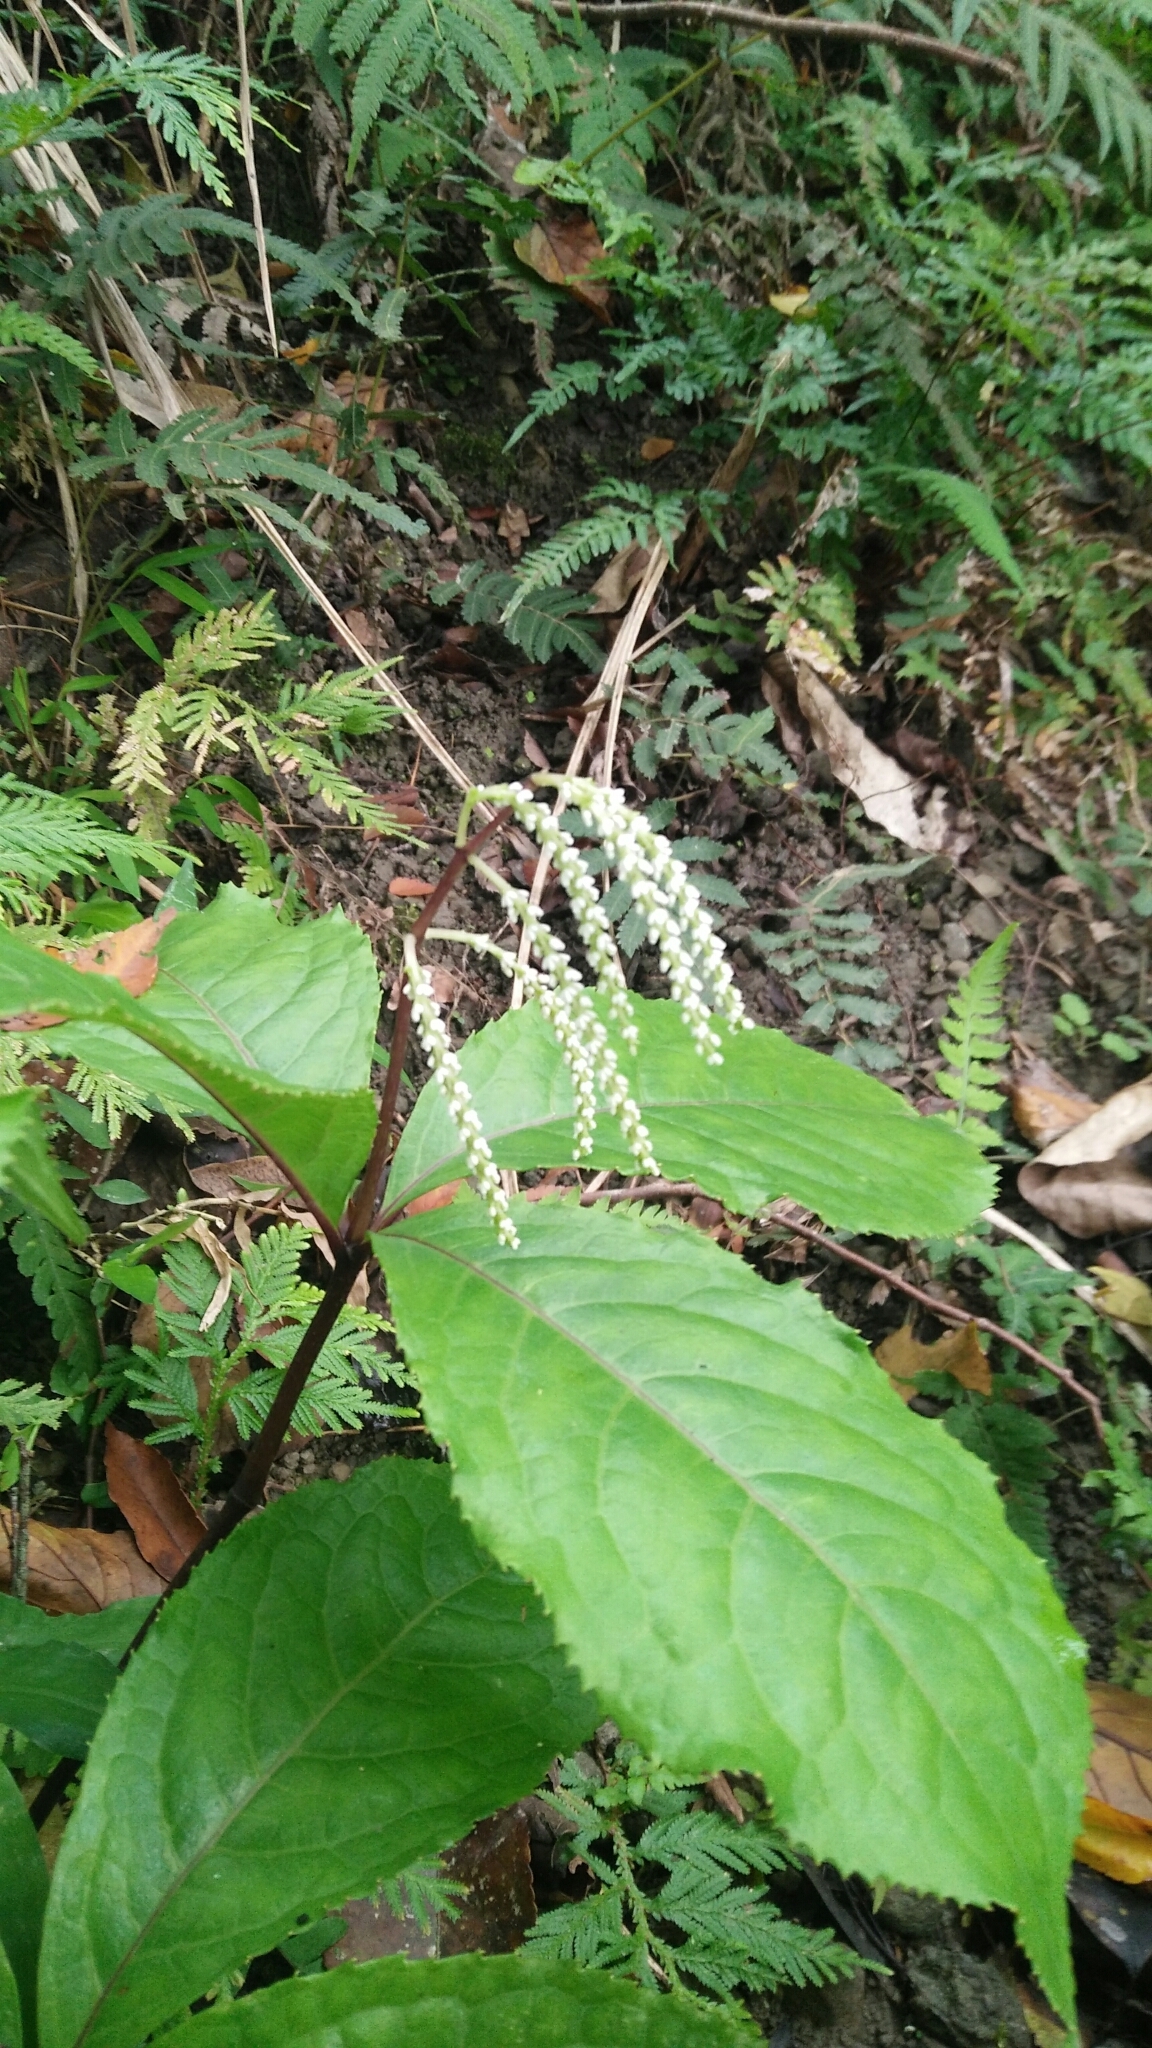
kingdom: Plantae
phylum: Tracheophyta
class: Magnoliopsida
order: Chloranthales
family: Chloranthaceae
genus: Chloranthus
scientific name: Chloranthus oldhamii
